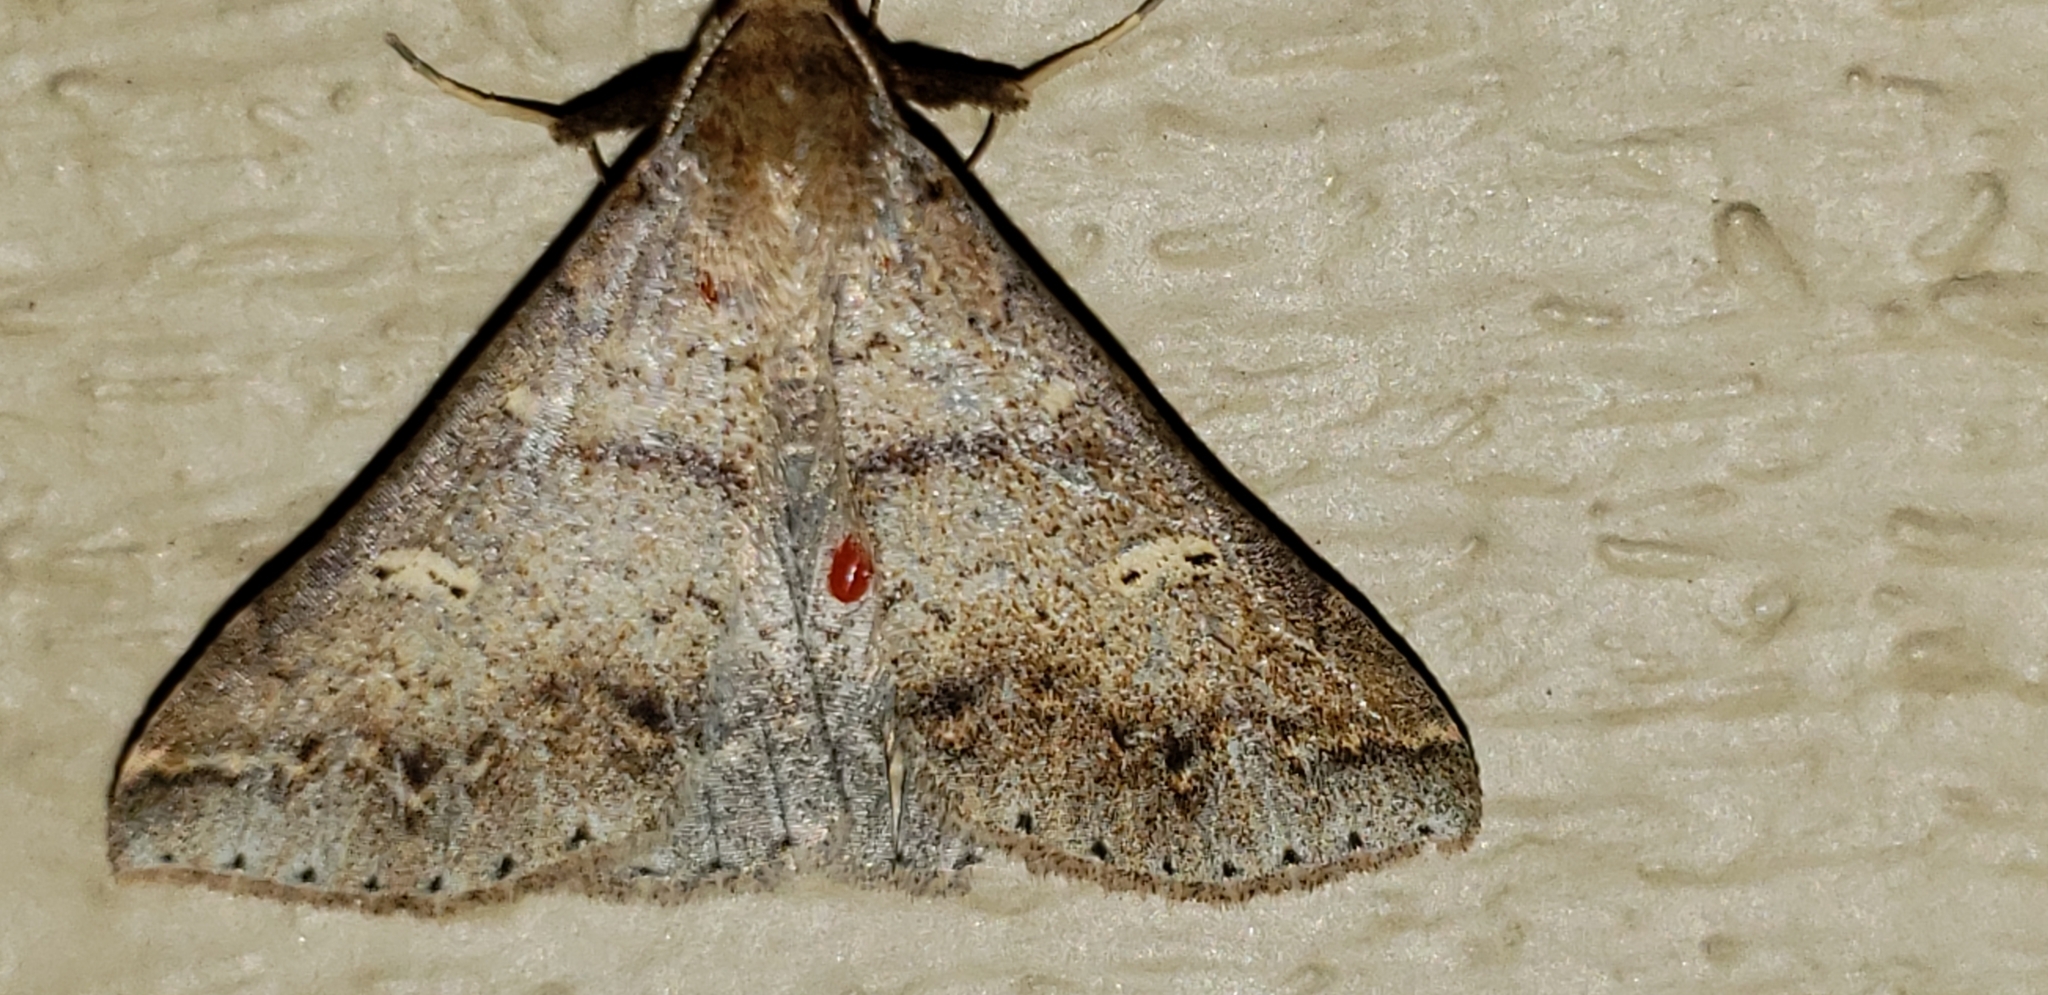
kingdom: Animalia
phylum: Arthropoda
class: Insecta
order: Lepidoptera
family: Erebidae
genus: Renia
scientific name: Renia discoloralis
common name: Discolored renia moth
